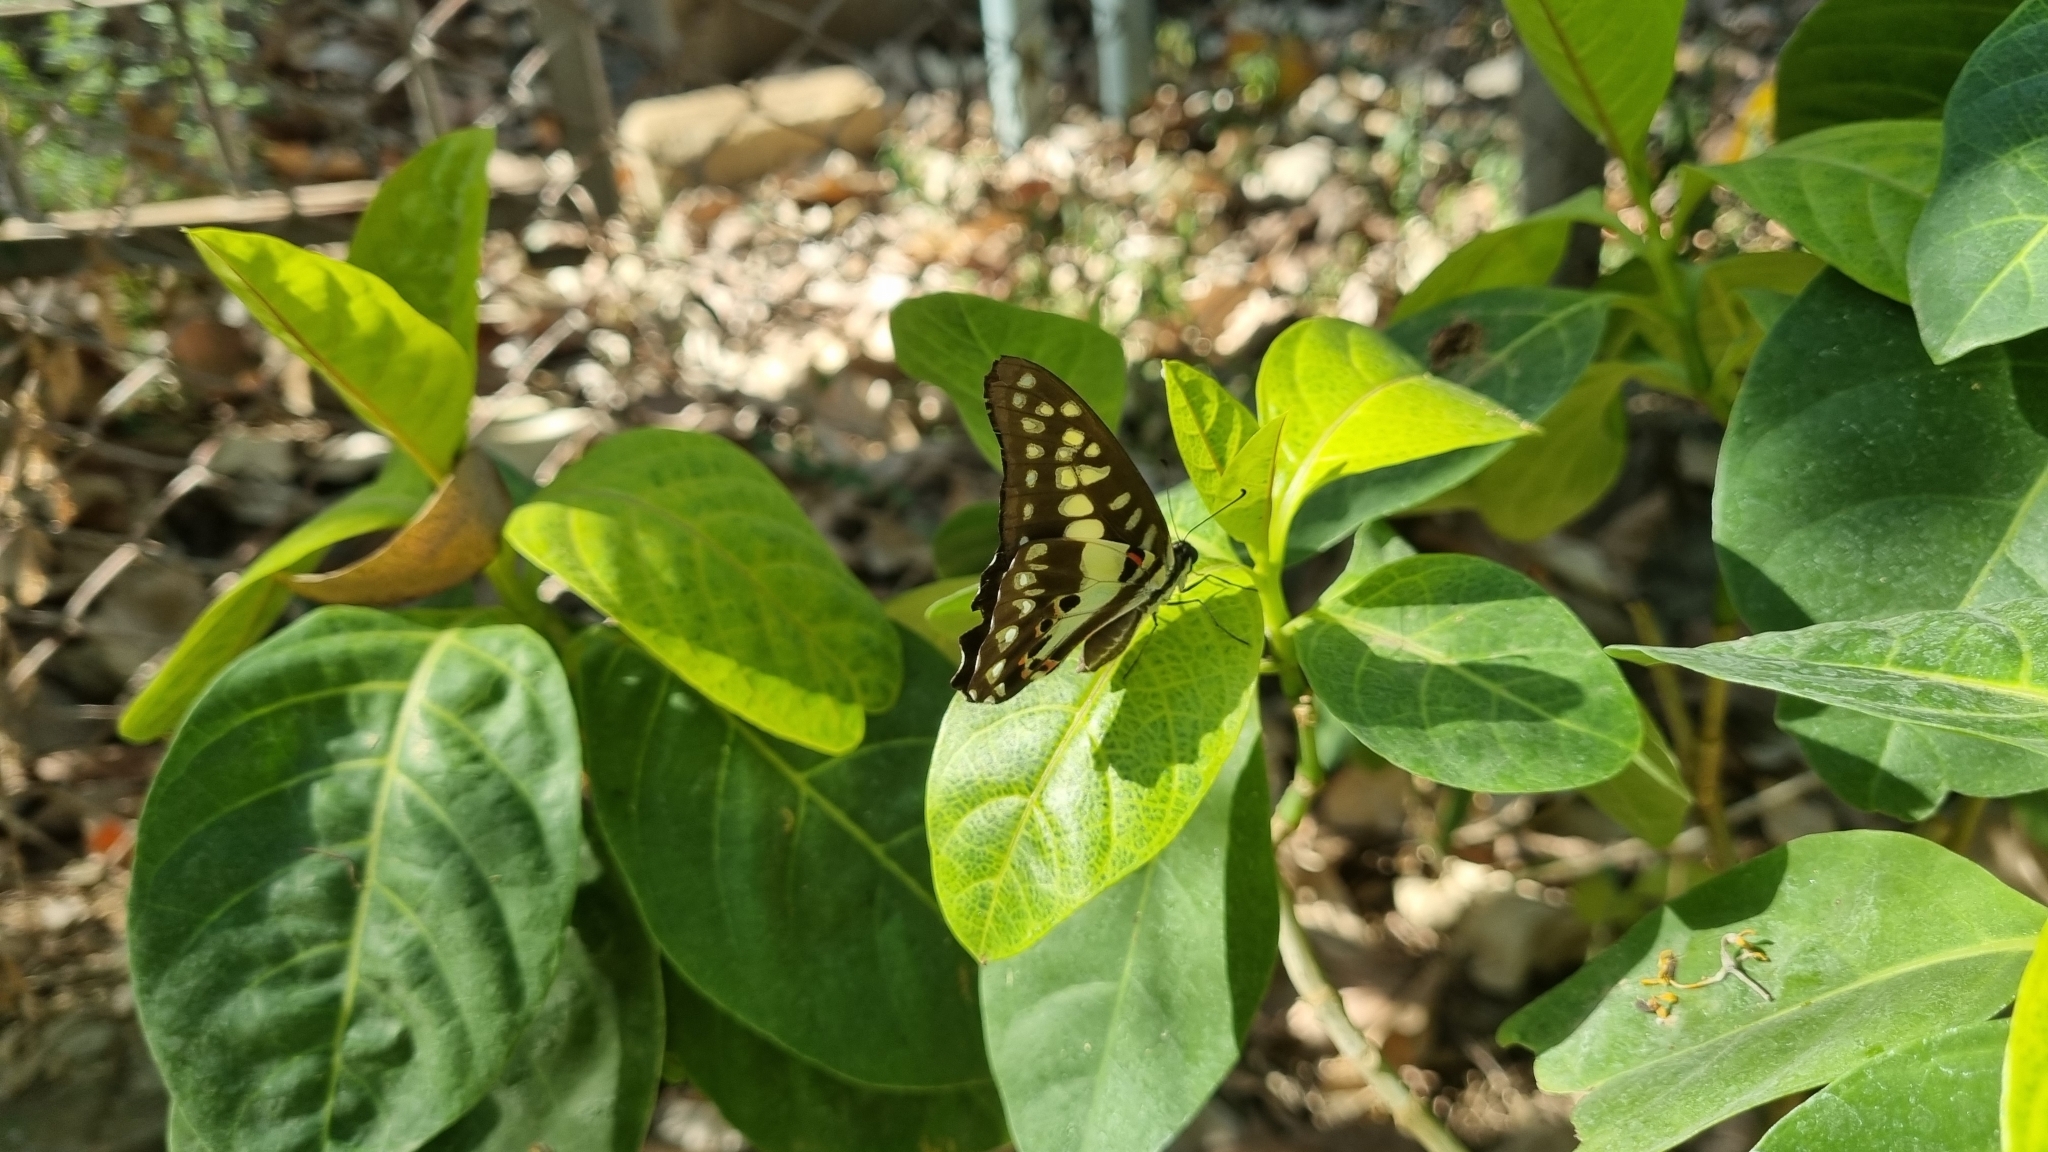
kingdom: Animalia
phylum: Arthropoda
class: Insecta
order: Lepidoptera
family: Papilionidae
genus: Graphium
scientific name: Graphium doson
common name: Common jay
